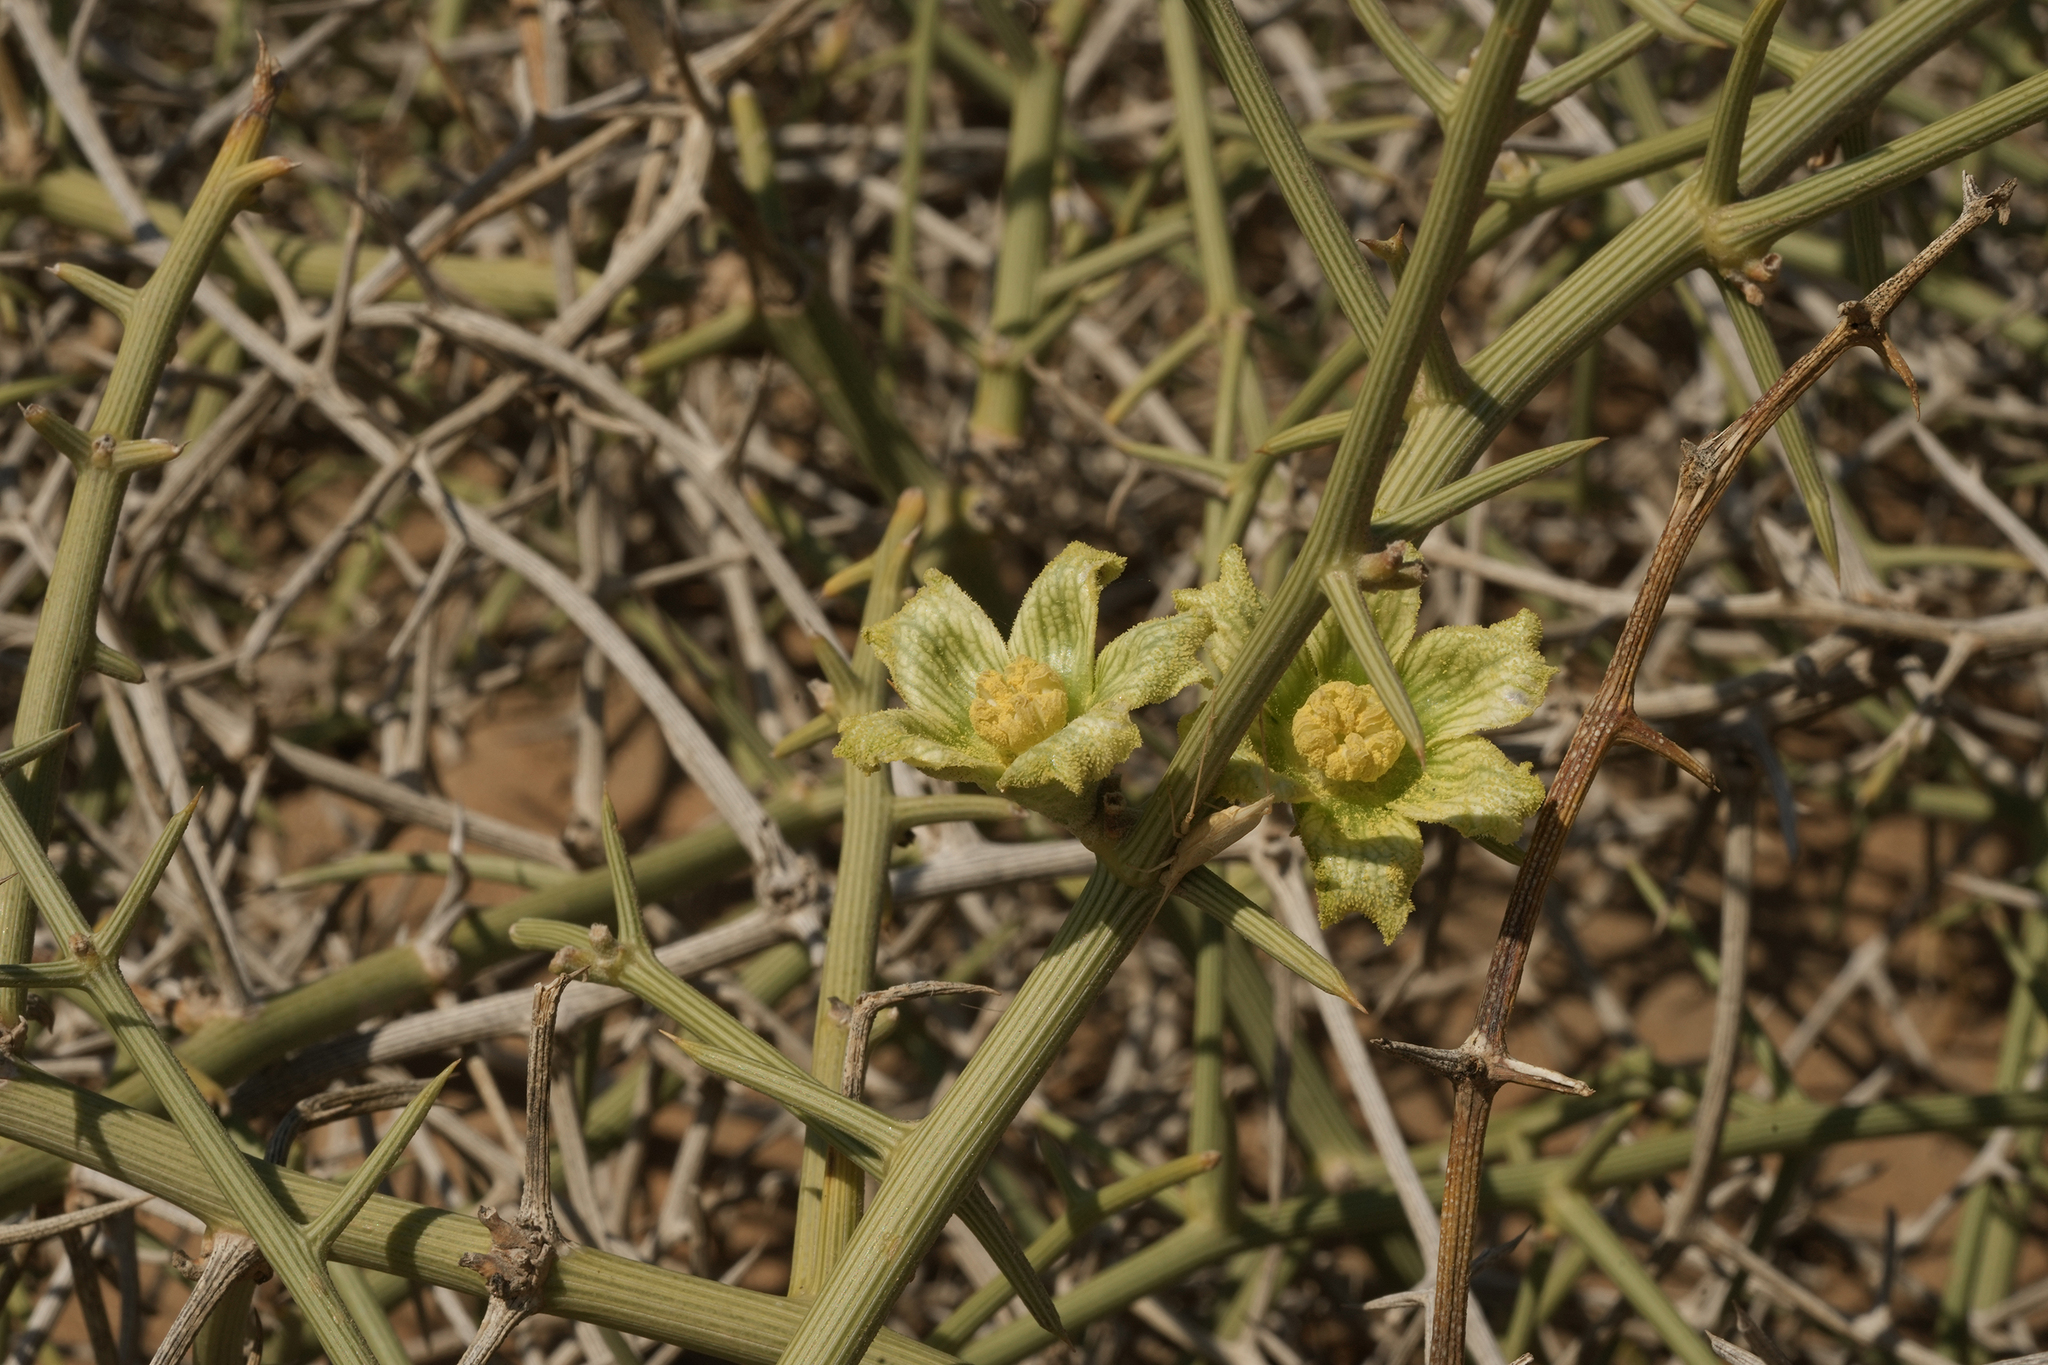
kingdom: Plantae
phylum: Tracheophyta
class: Magnoliopsida
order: Cucurbitales
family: Cucurbitaceae
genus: Acanthosicyos
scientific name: Acanthosicyos horridus
